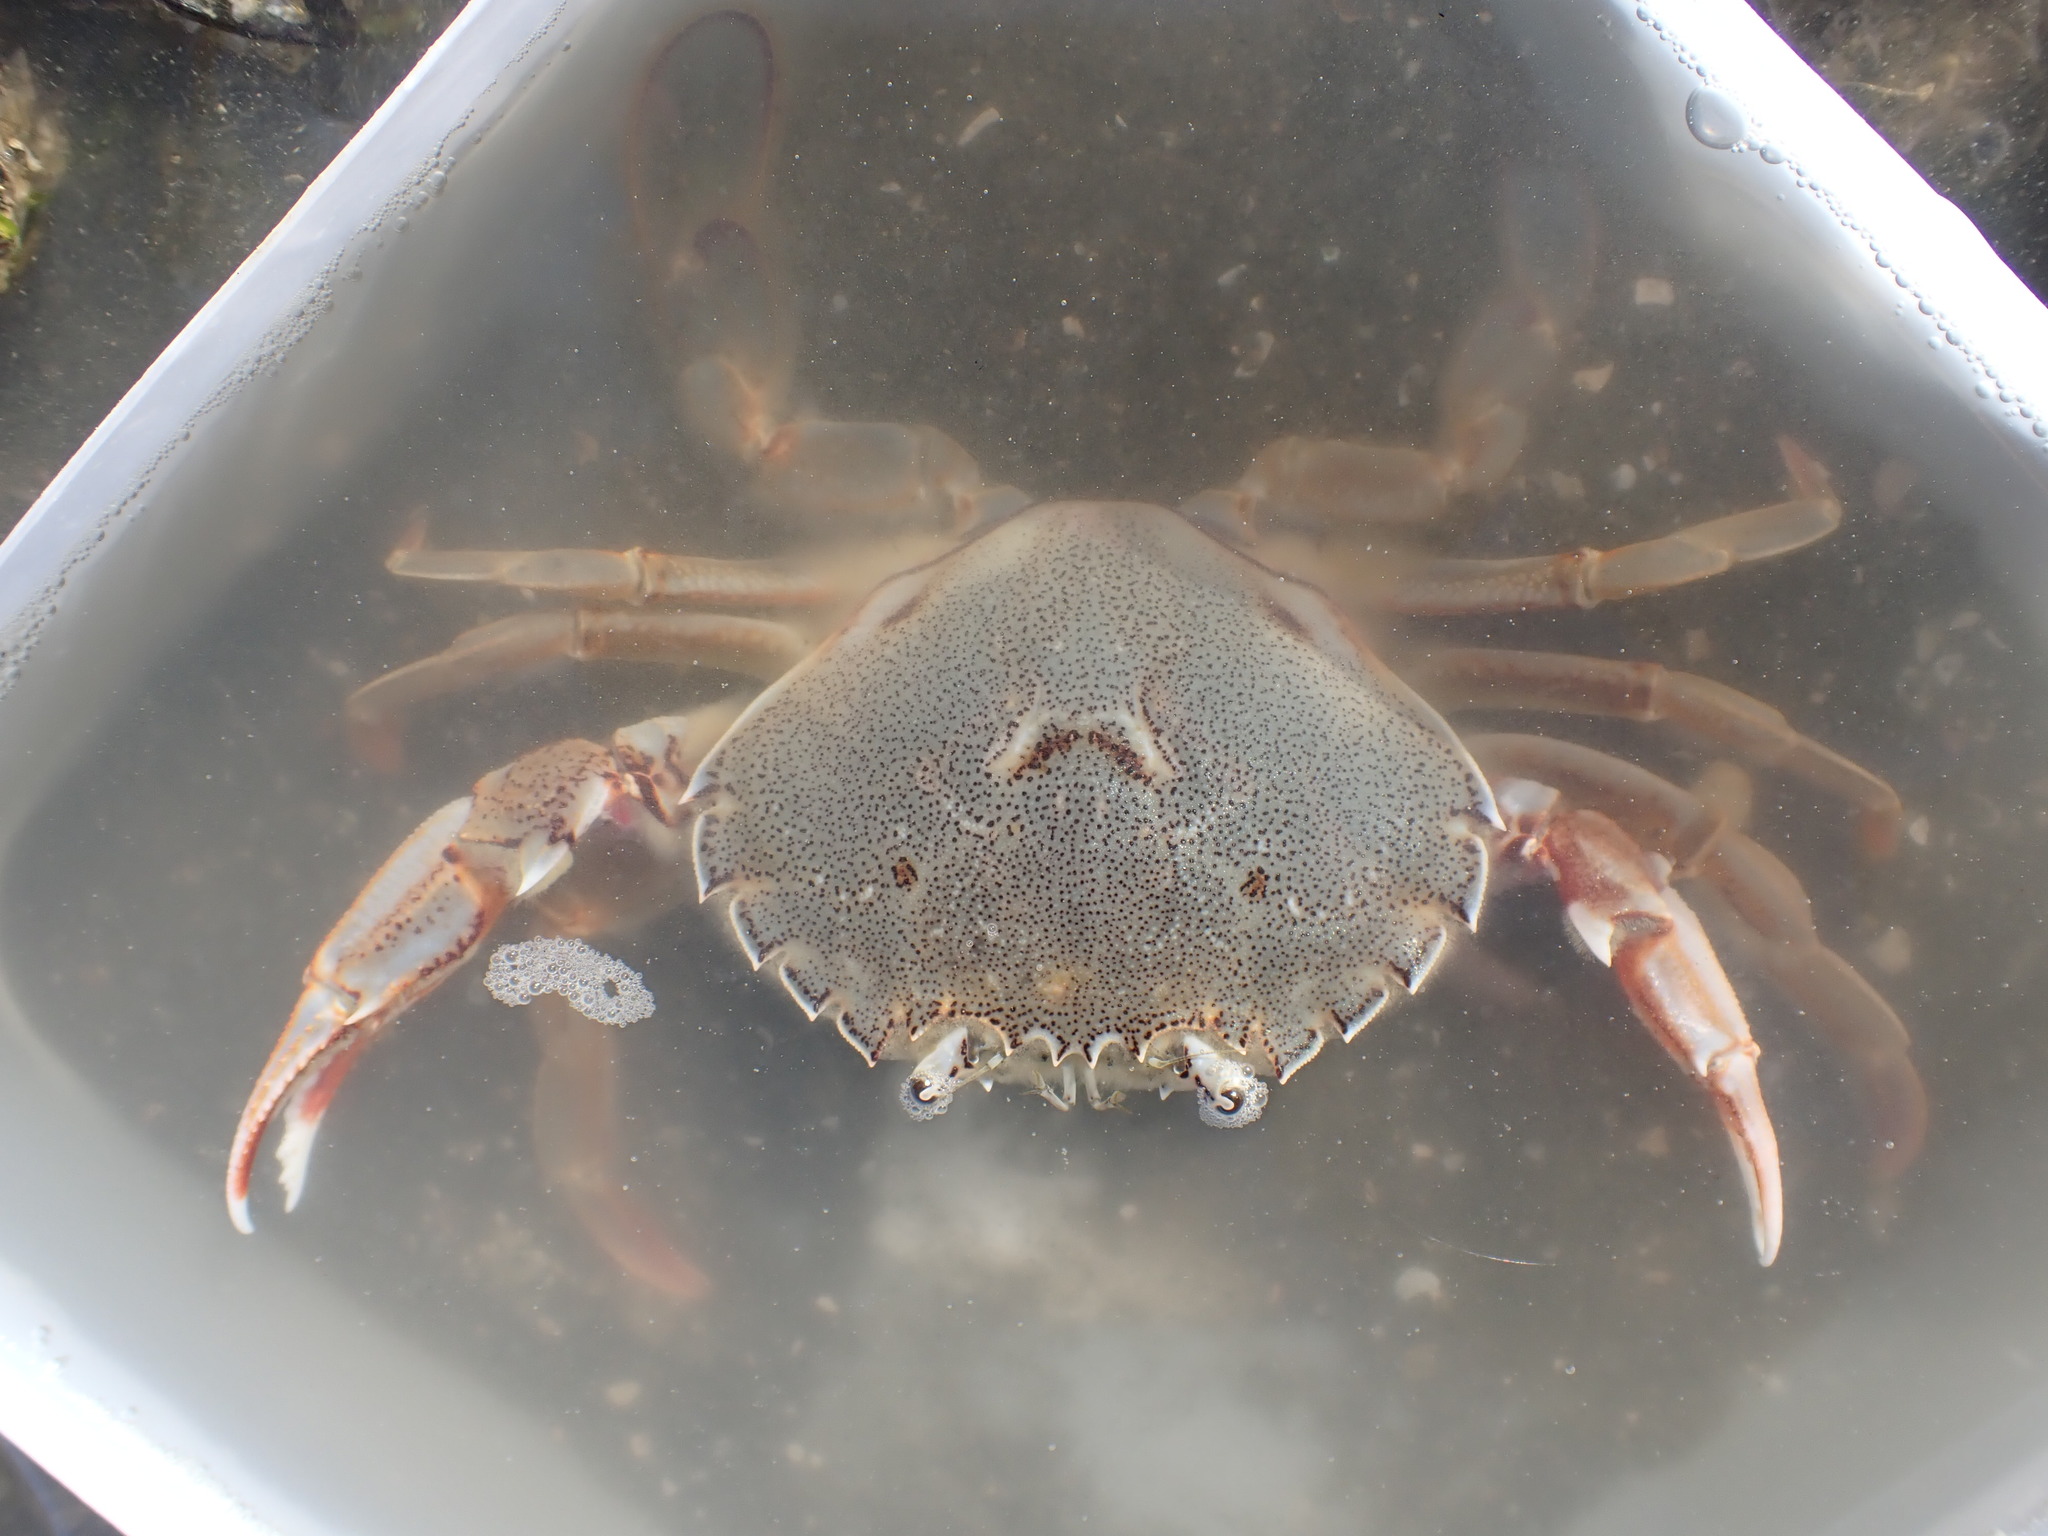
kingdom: Animalia
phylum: Arthropoda
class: Malacostraca
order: Decapoda
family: Ovalipidae
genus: Ovalipes
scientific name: Ovalipes catharus
